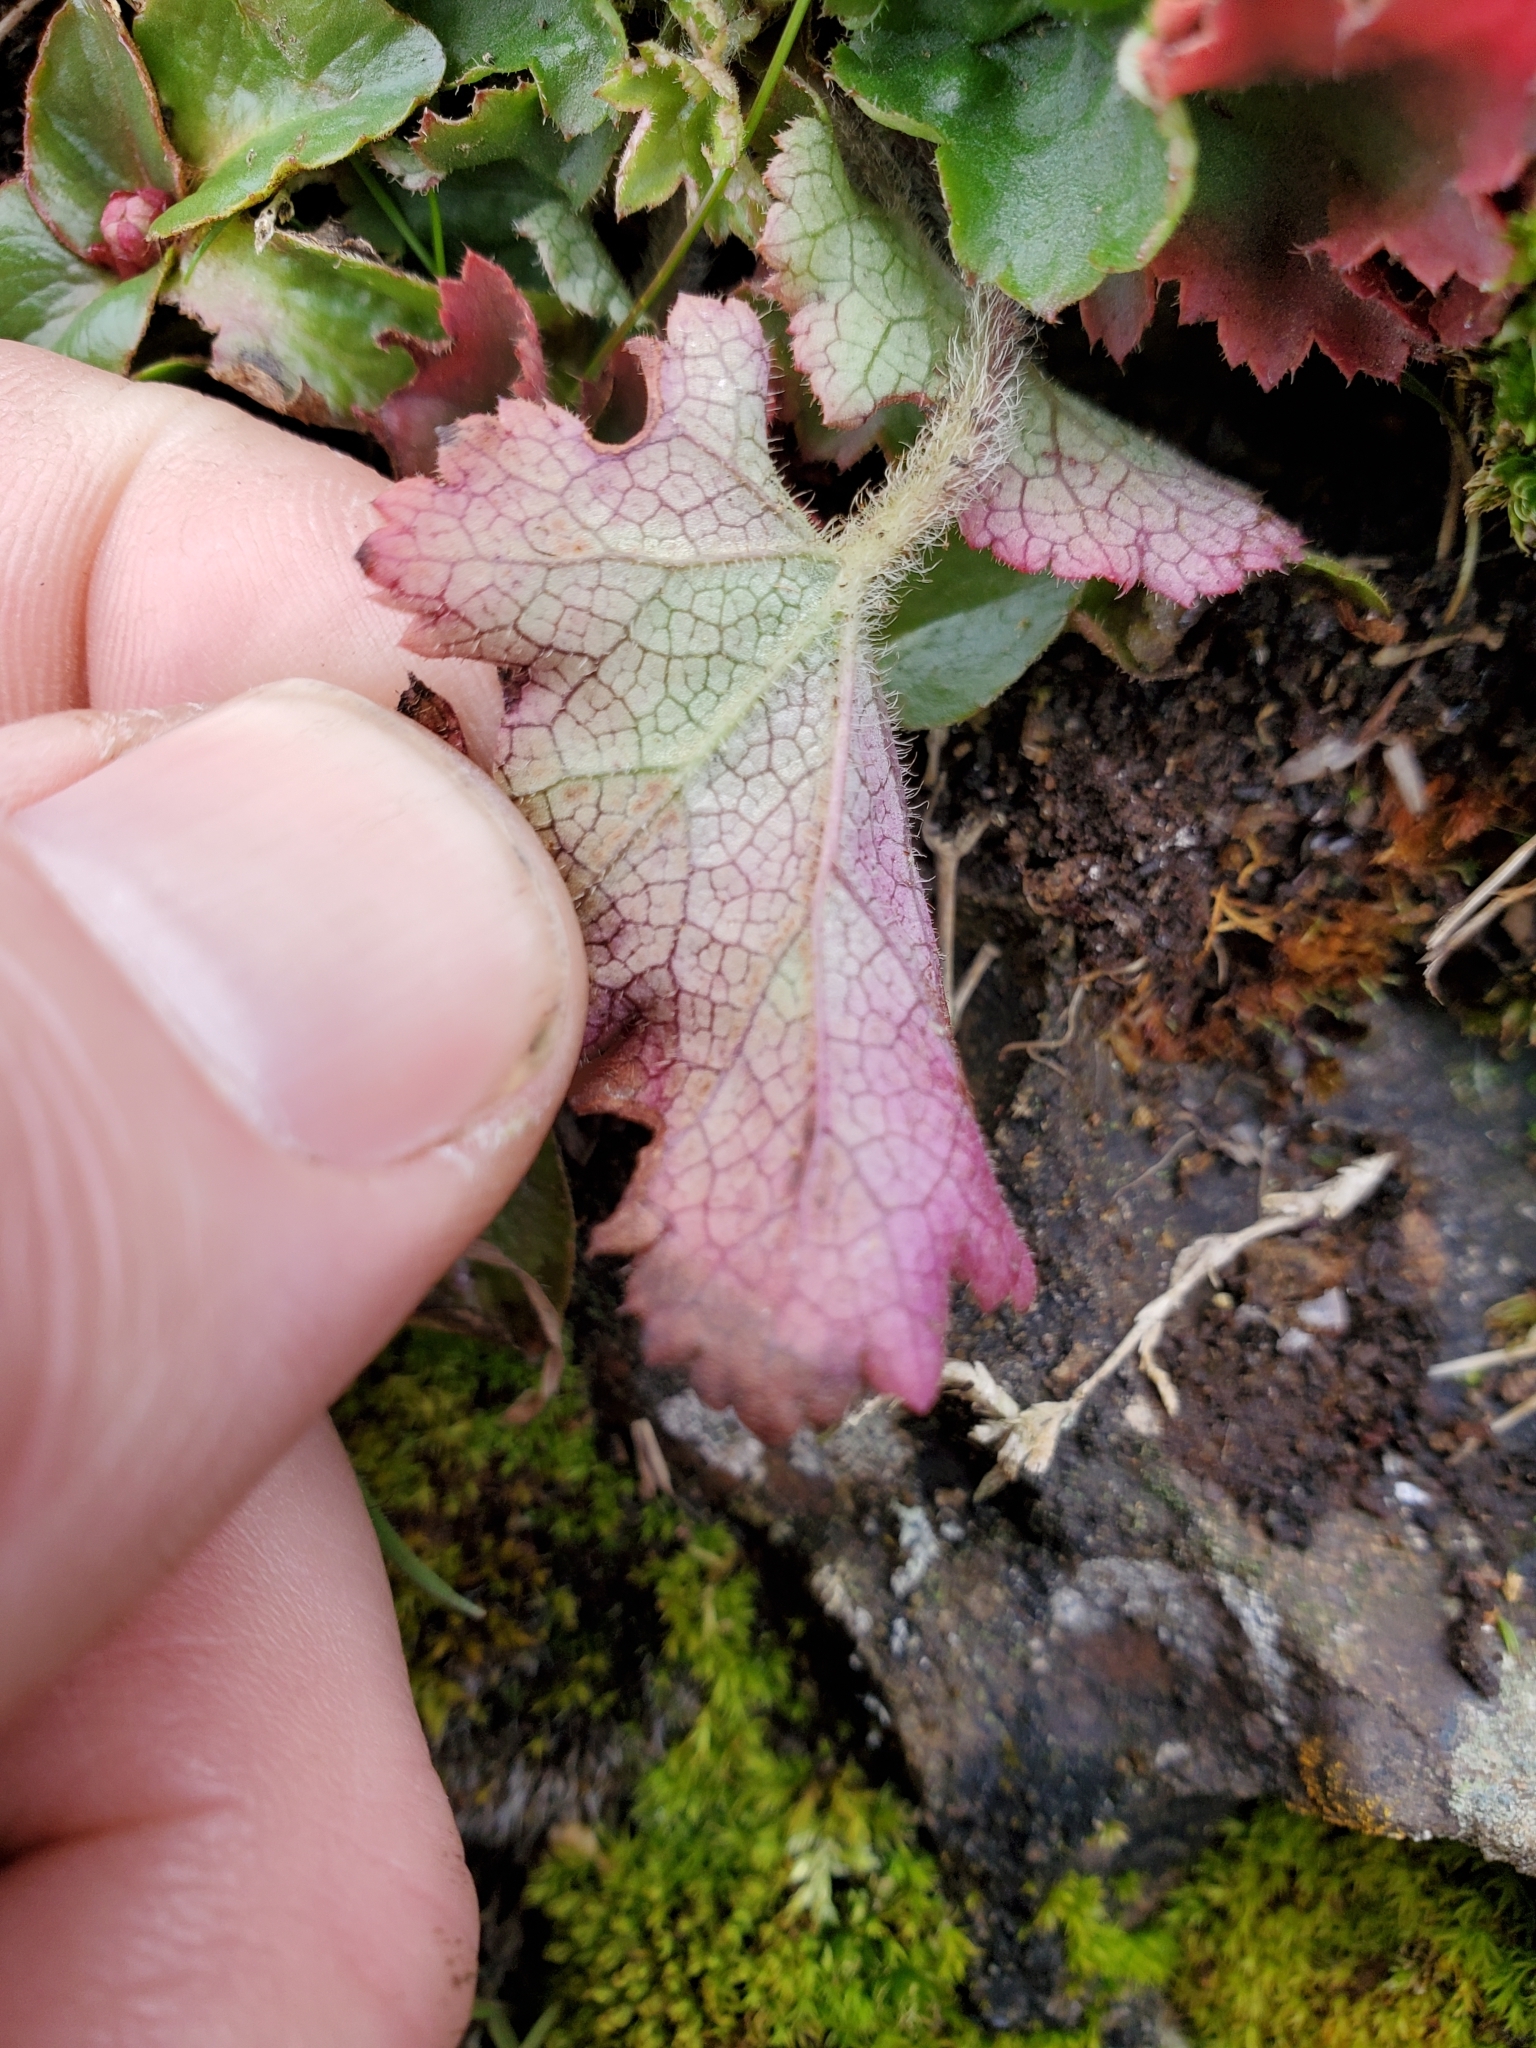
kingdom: Plantae
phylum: Tracheophyta
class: Magnoliopsida
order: Saxifragales
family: Saxifragaceae
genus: Heuchera
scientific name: Heuchera micrantha
